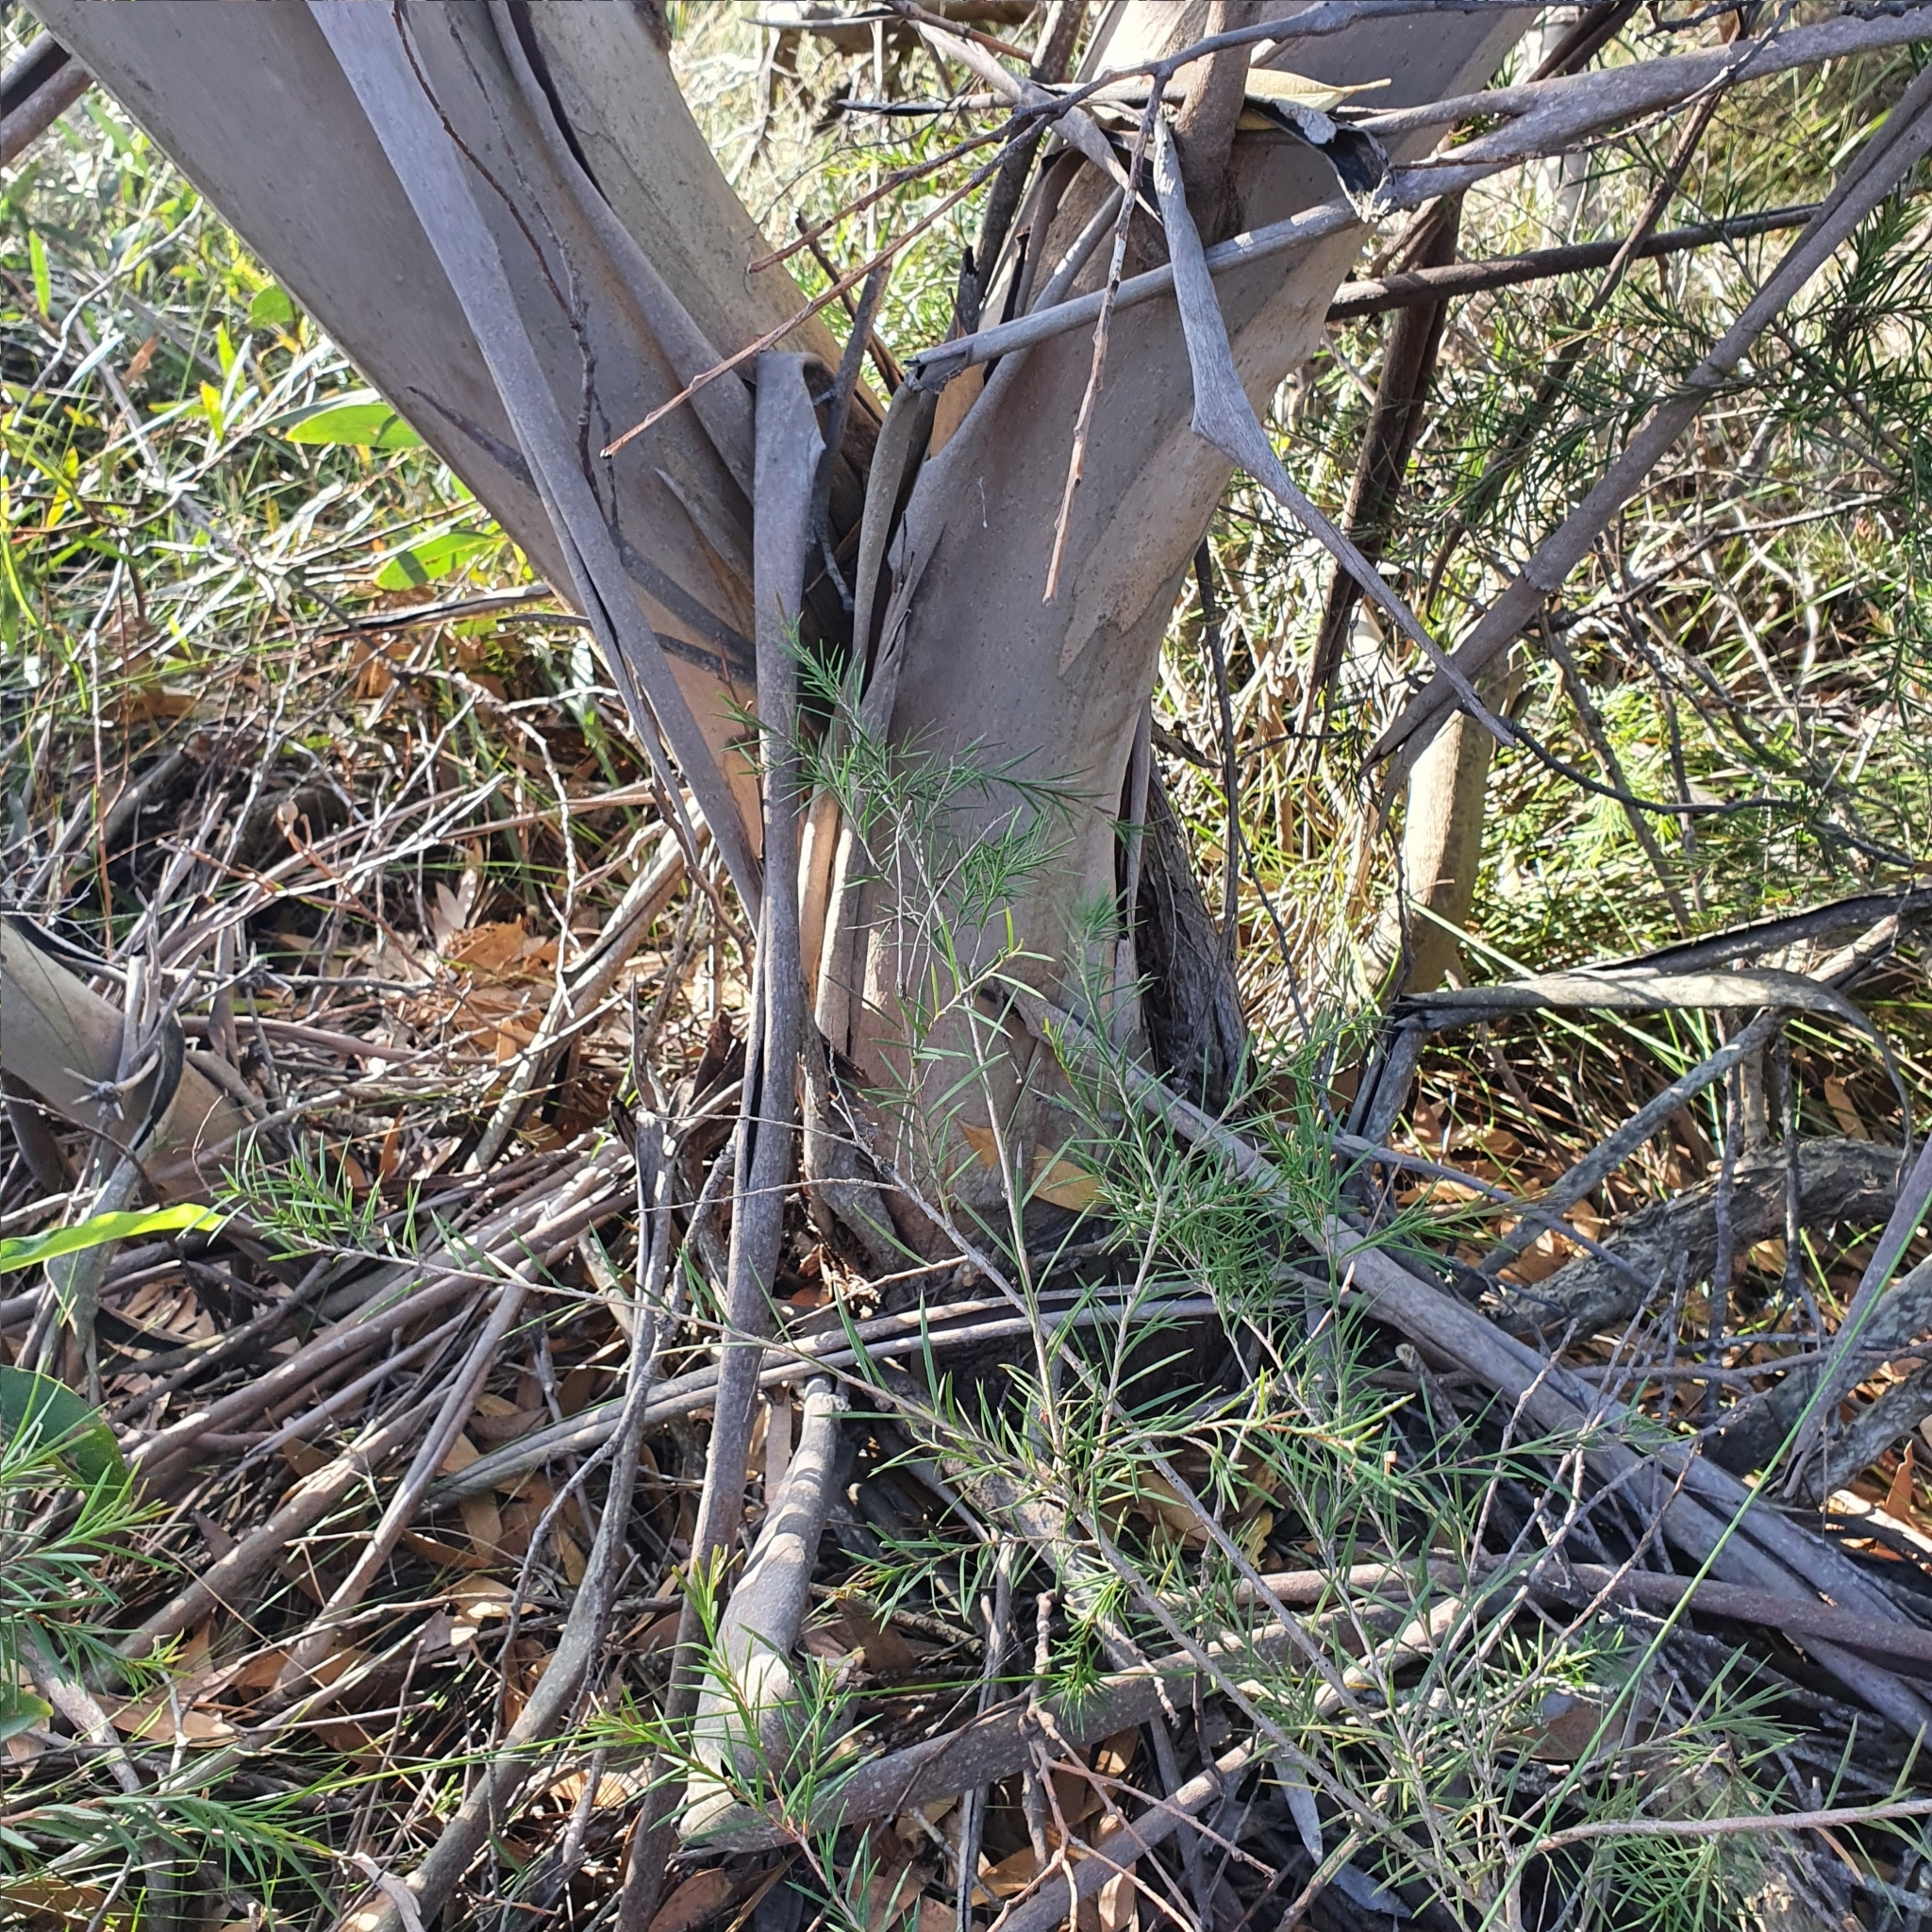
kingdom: Plantae
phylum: Tracheophyta
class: Magnoliopsida
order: Myrtales
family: Myrtaceae
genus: Eucalyptus
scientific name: Eucalyptus burgessiana
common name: Falconbridge mallee-ash
